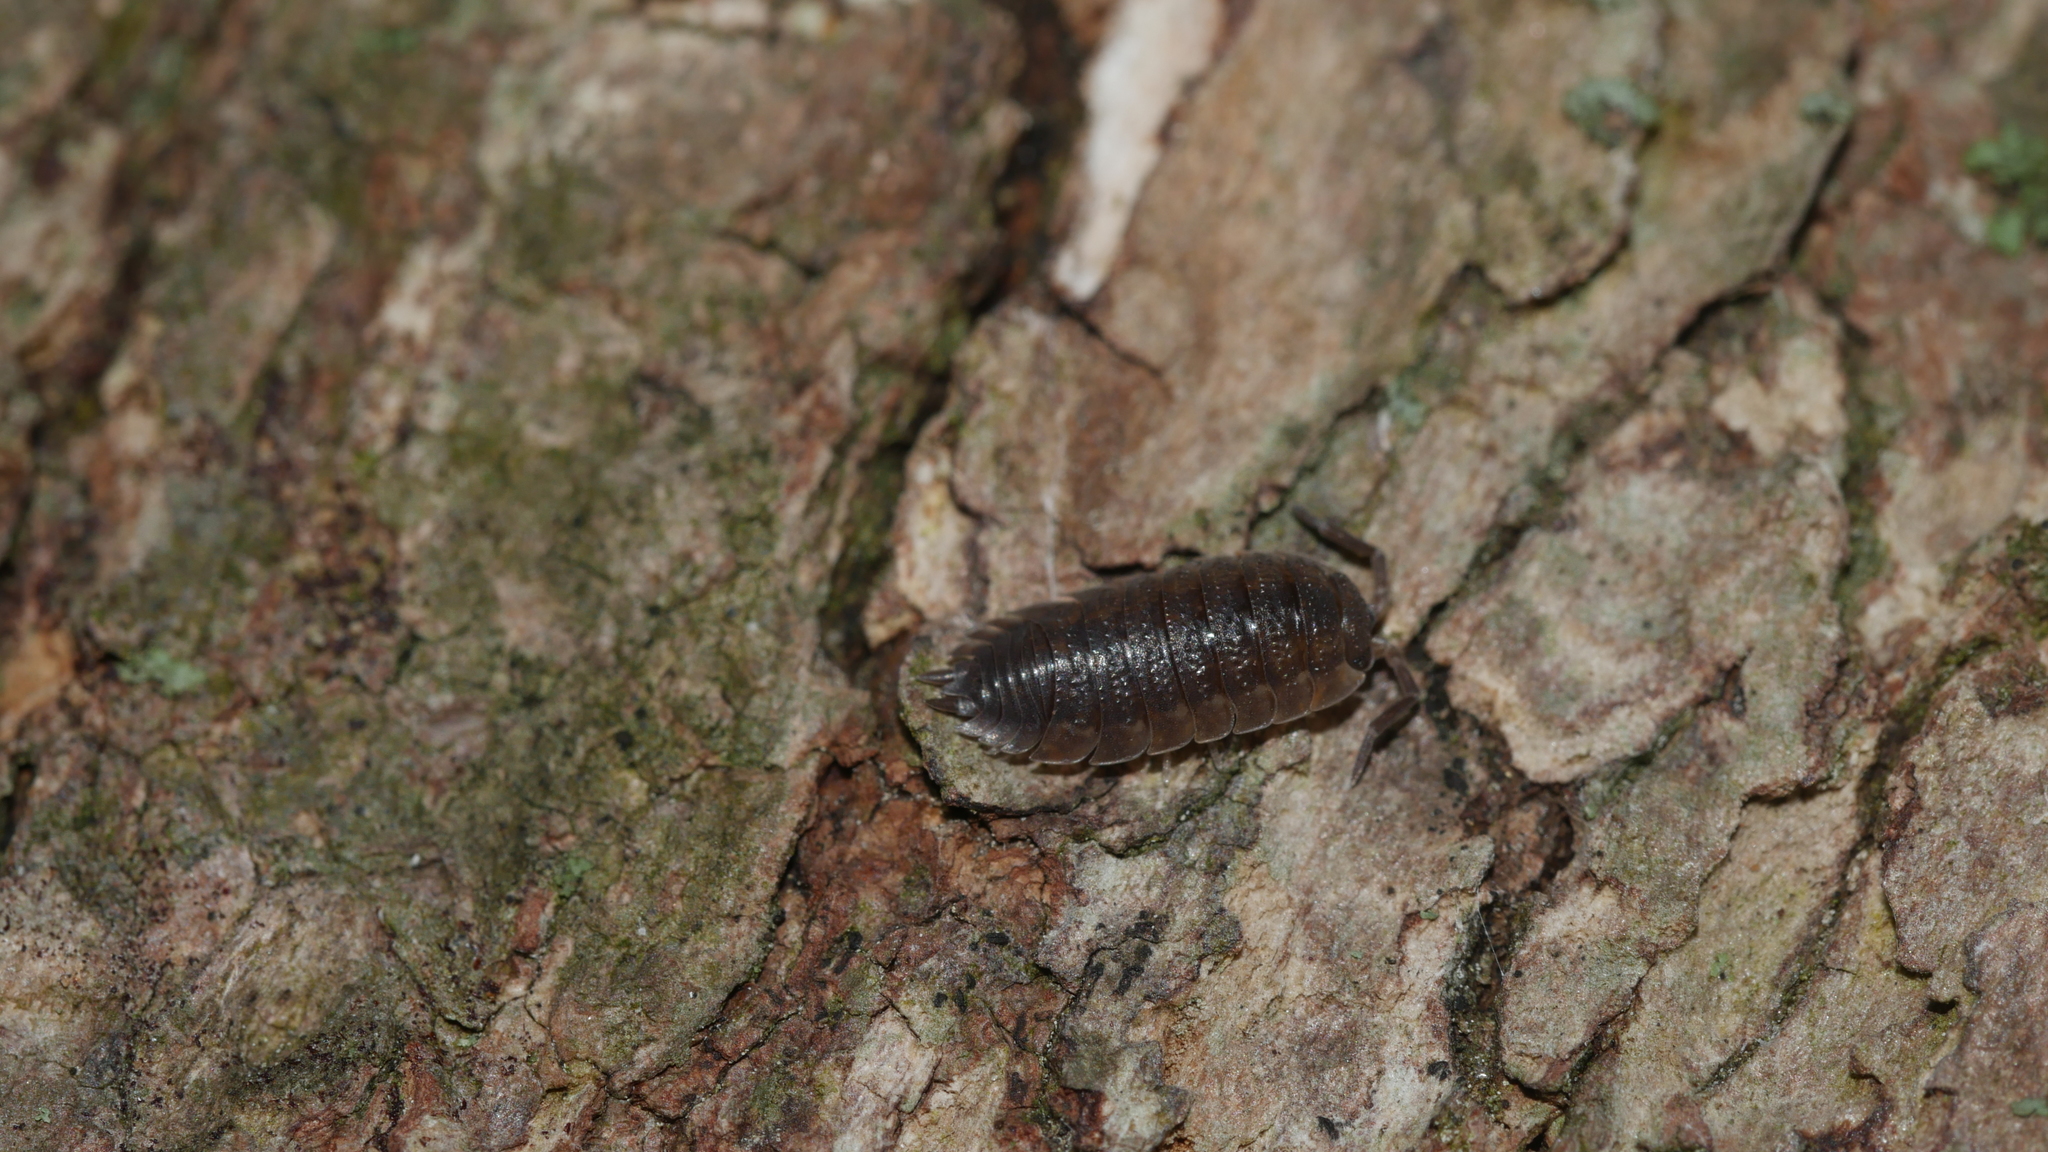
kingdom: Animalia
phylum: Arthropoda
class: Malacostraca
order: Isopoda
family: Porcellionidae
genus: Porcellio
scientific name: Porcellio scaber
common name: Common rough woodlouse
